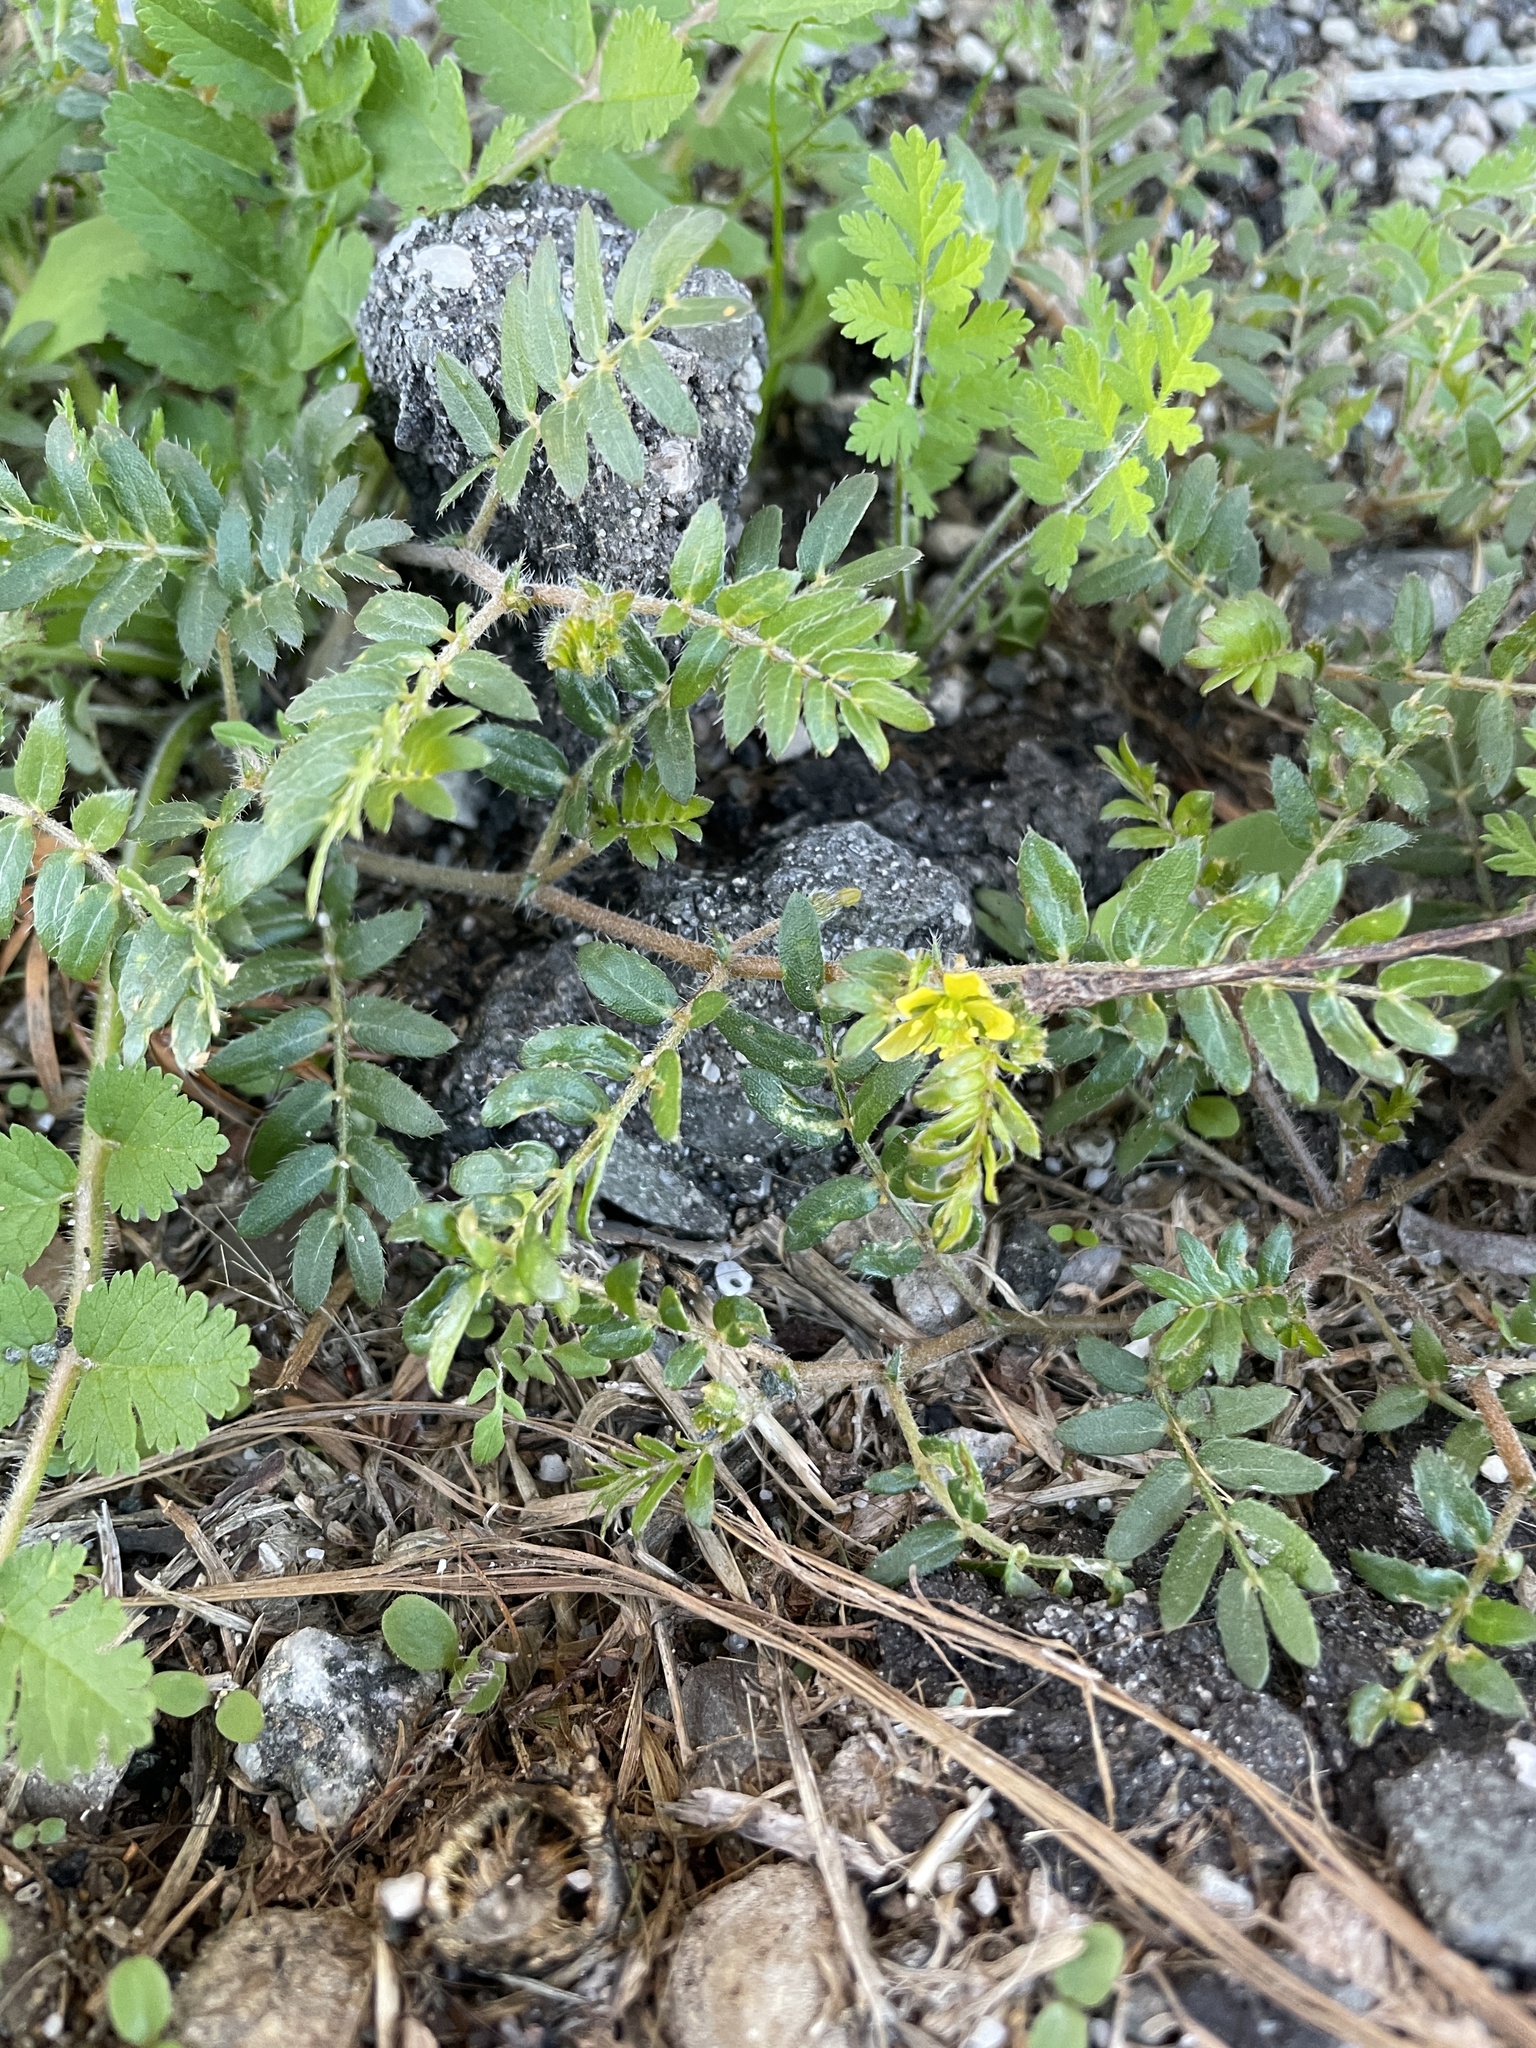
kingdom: Plantae
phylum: Tracheophyta
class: Magnoliopsida
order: Zygophyllales
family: Zygophyllaceae
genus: Tribulus
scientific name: Tribulus terrestris
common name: Puncturevine
